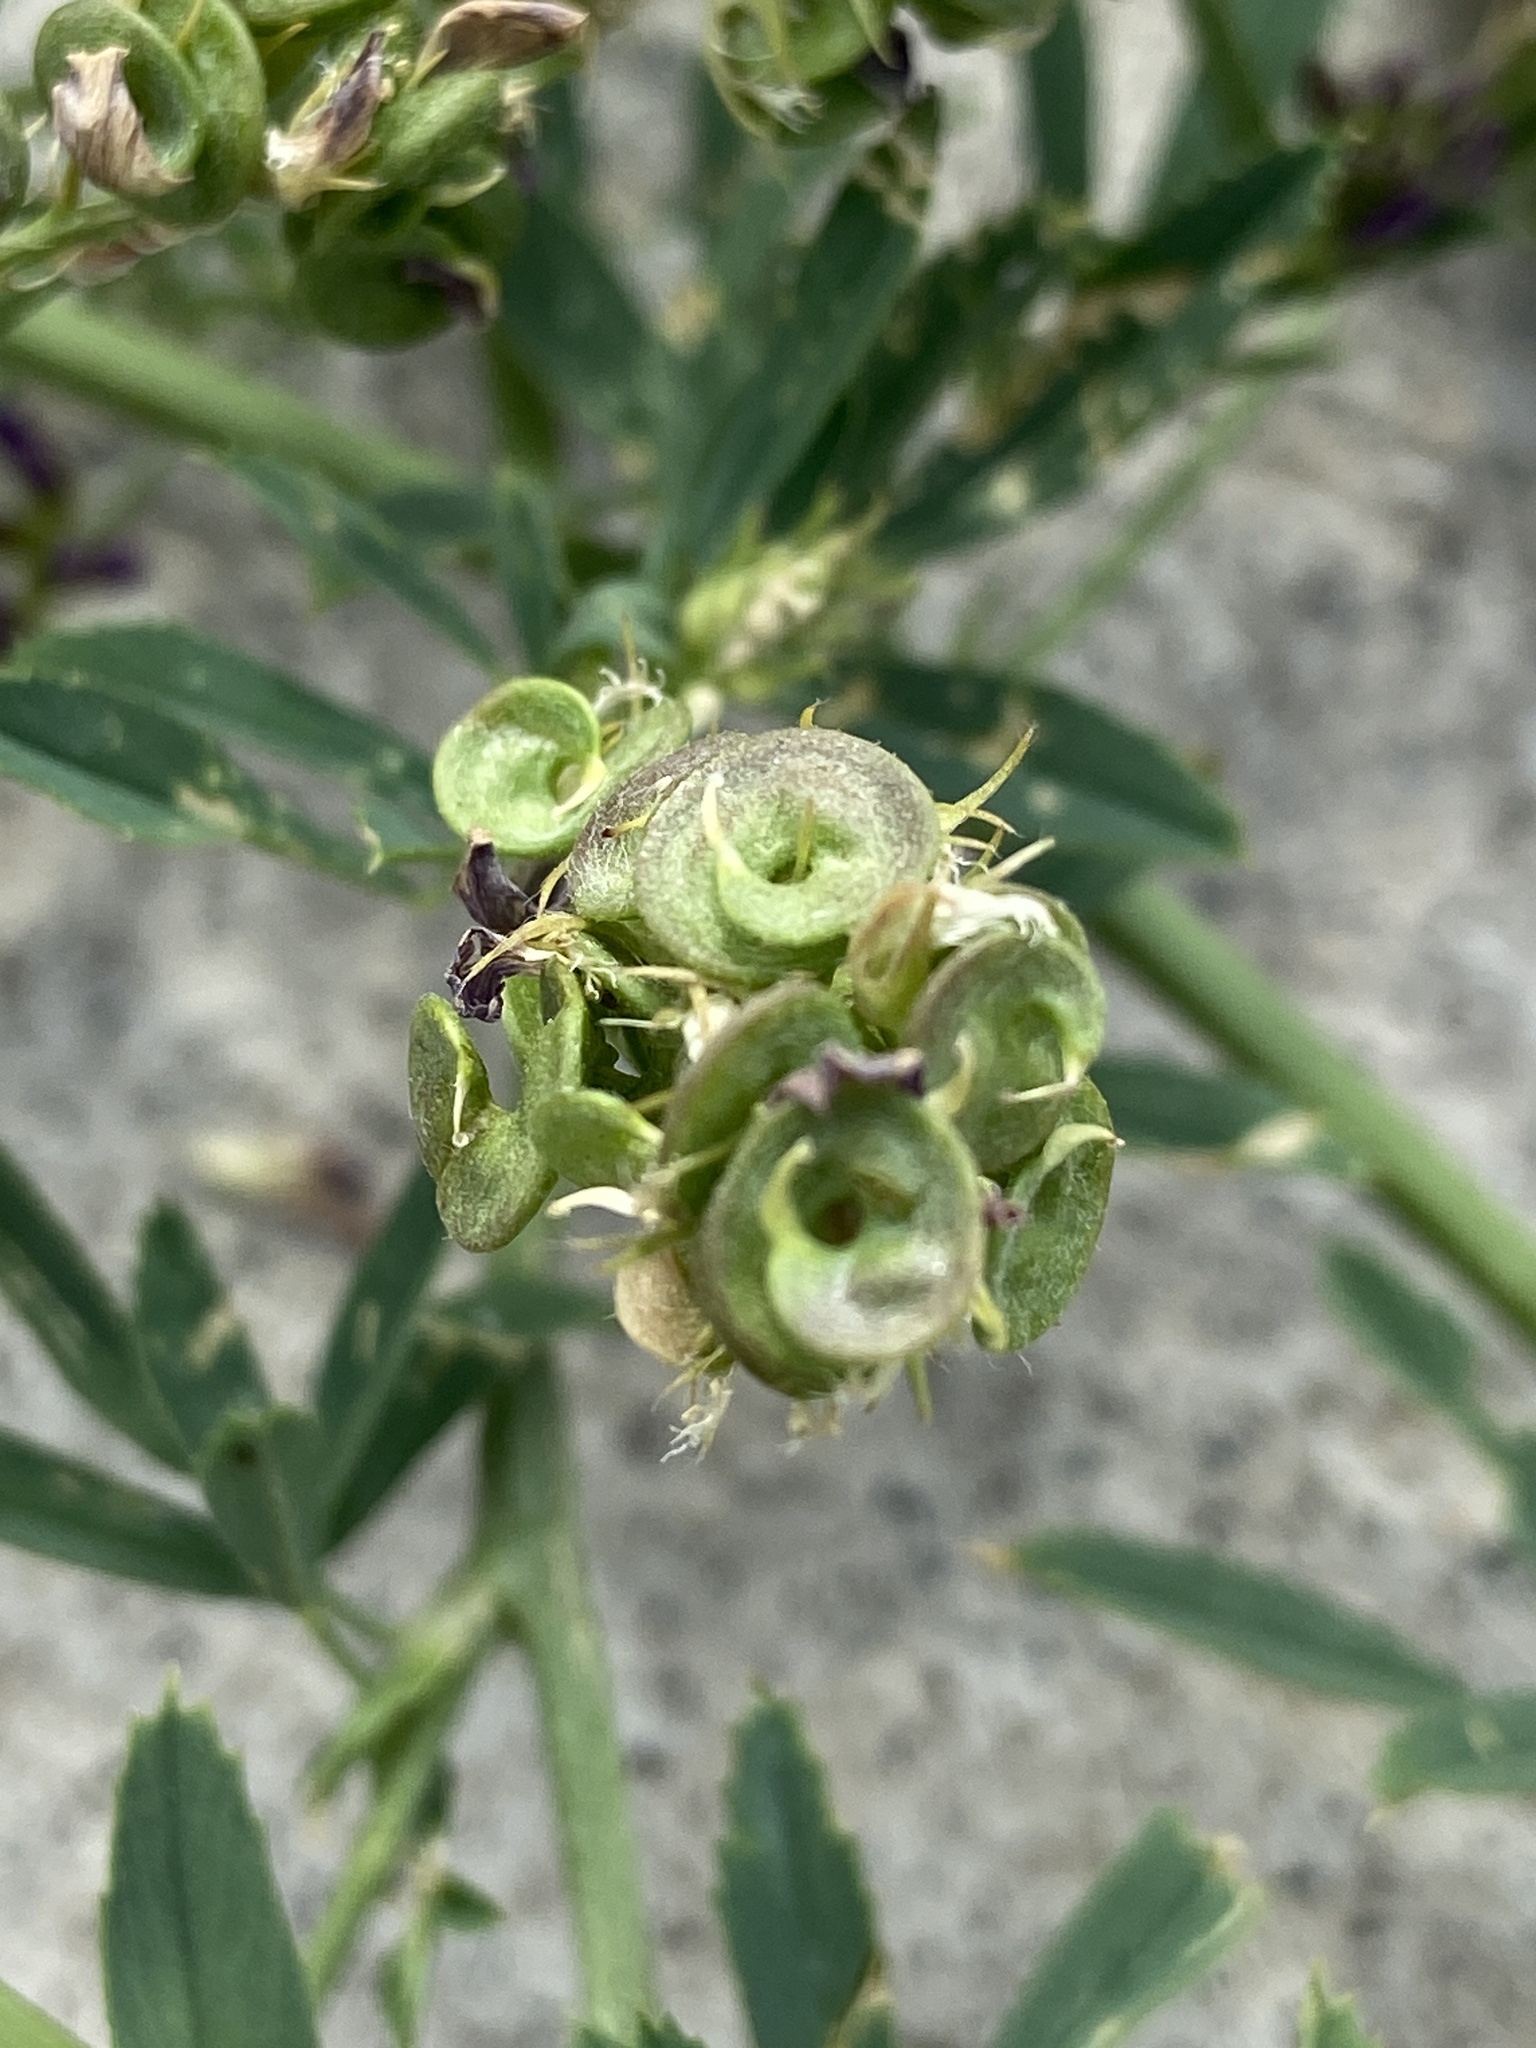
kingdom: Plantae
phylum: Tracheophyta
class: Magnoliopsida
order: Fabales
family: Fabaceae
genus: Medicago
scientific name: Medicago sativa
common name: Alfalfa
